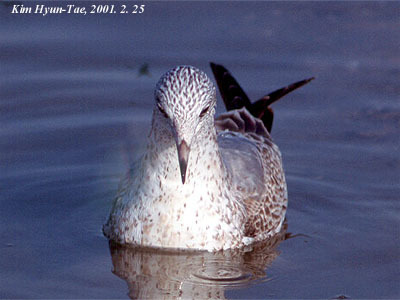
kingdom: Animalia
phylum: Chordata
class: Aves
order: Charadriiformes
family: Laridae
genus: Larus
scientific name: Larus canus
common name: Mew gull
